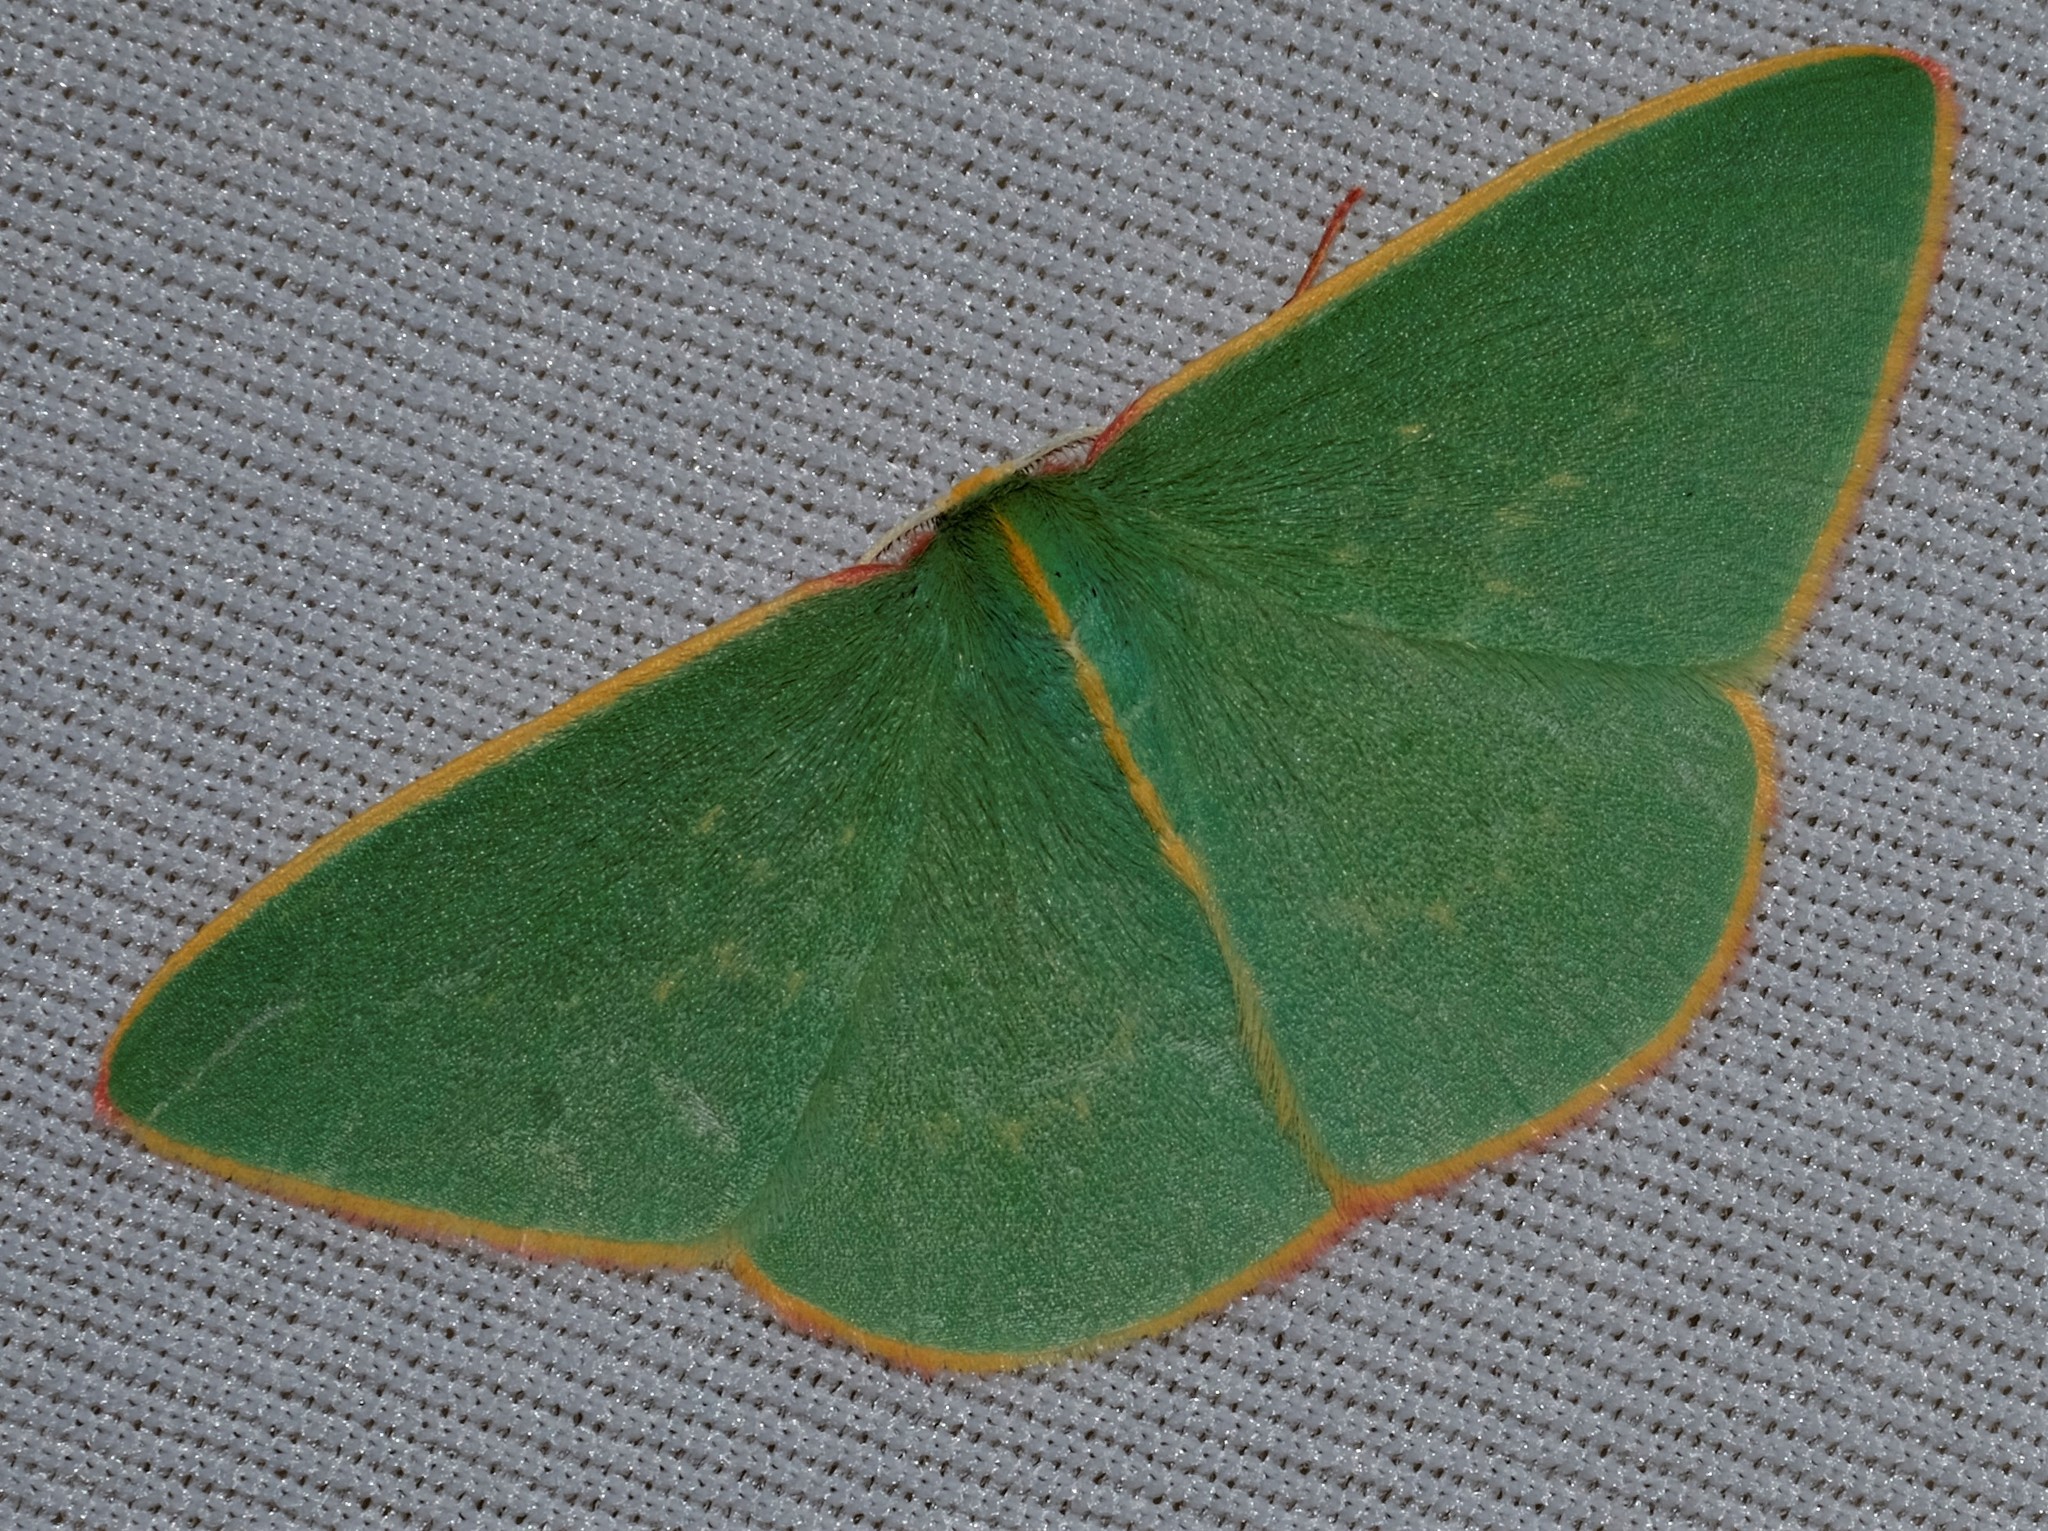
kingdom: Animalia
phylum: Arthropoda
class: Insecta
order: Lepidoptera
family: Geometridae
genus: Chlorocoma
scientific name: Chlorocoma dichloraria
